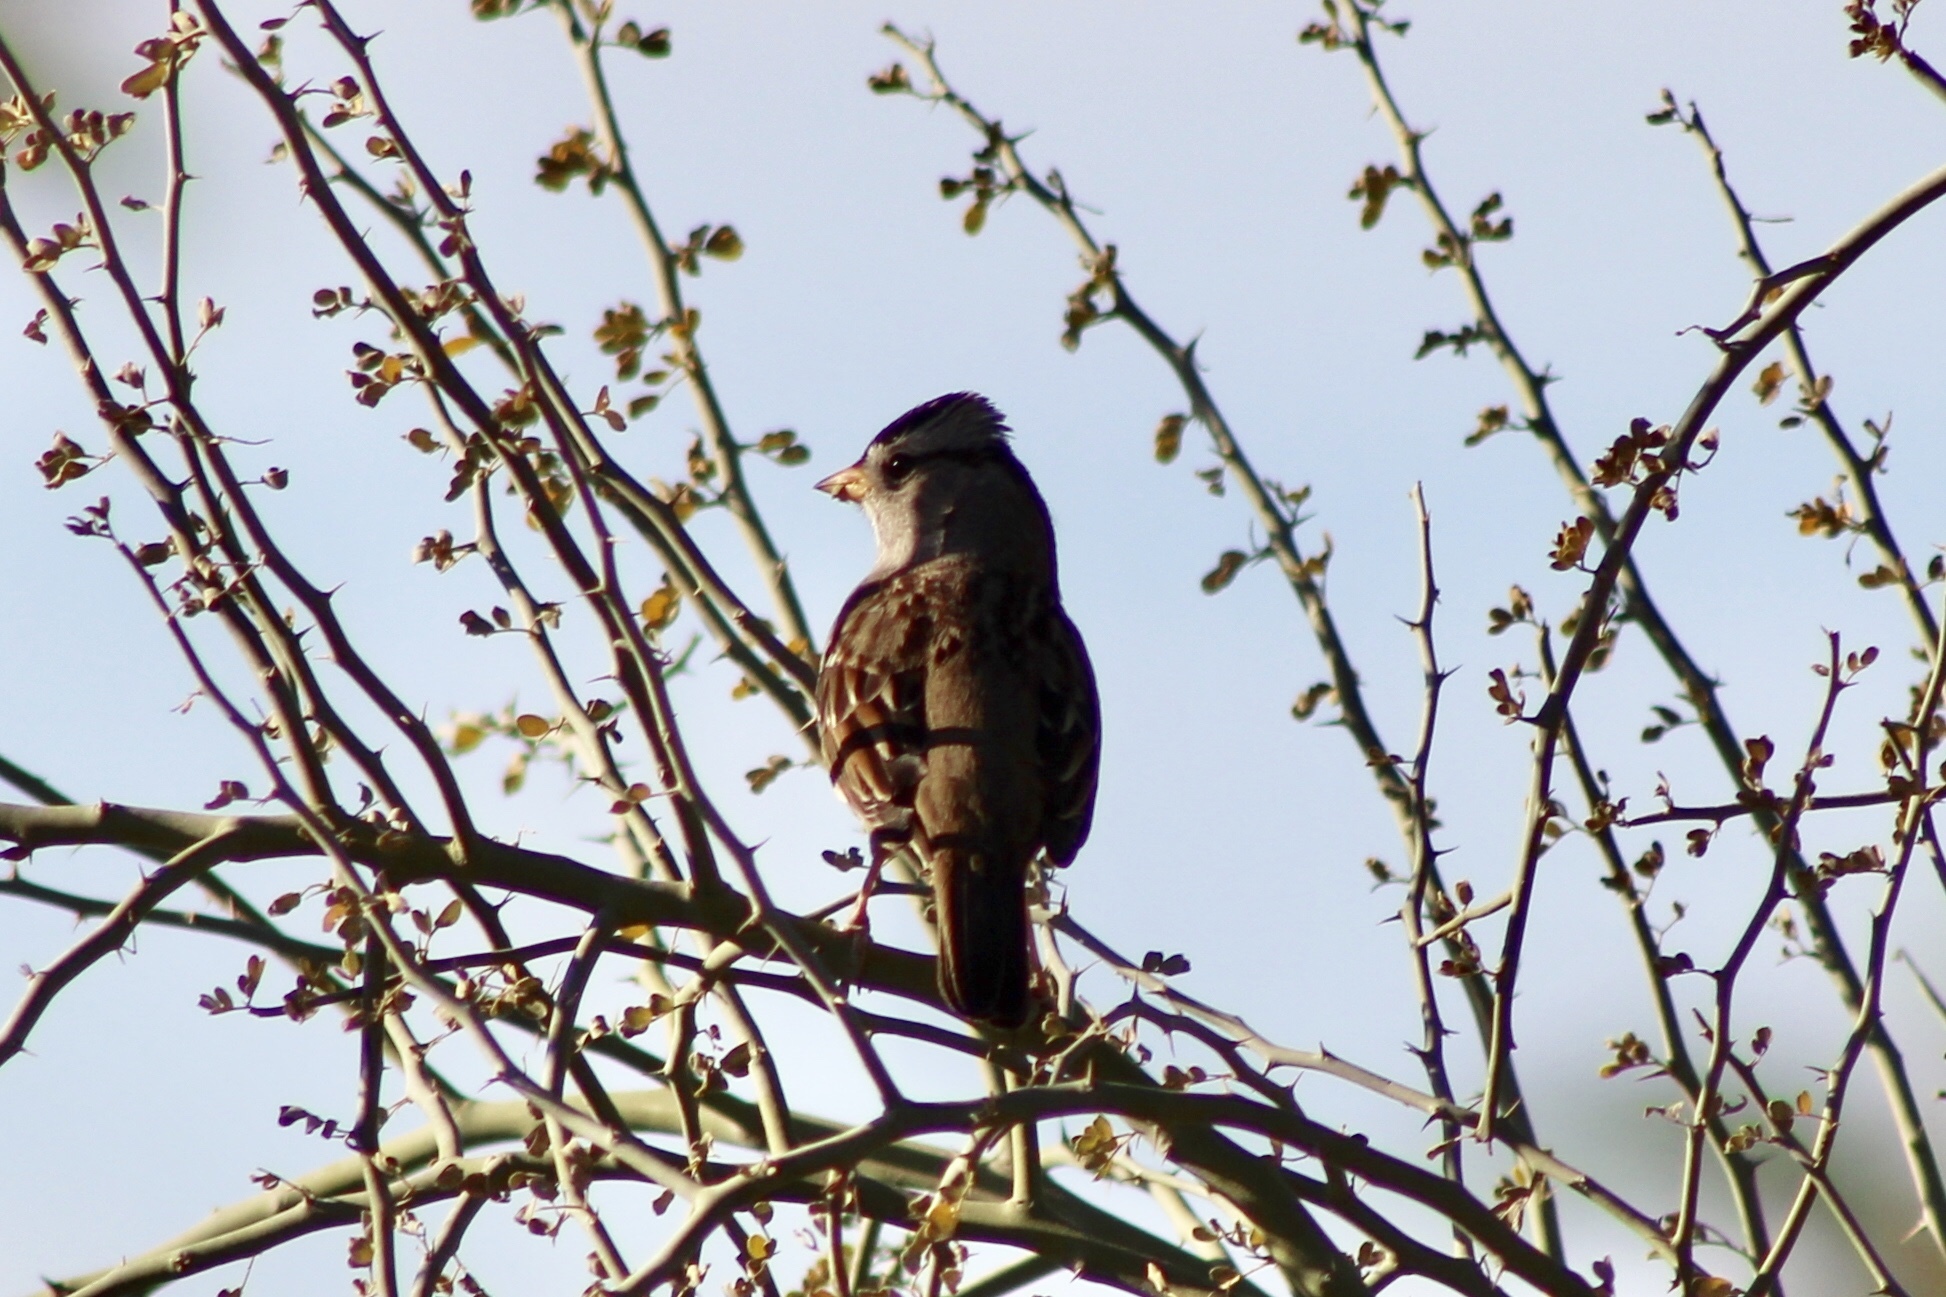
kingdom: Animalia
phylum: Chordata
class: Aves
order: Passeriformes
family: Passerellidae
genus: Zonotrichia
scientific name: Zonotrichia leucophrys
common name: White-crowned sparrow
